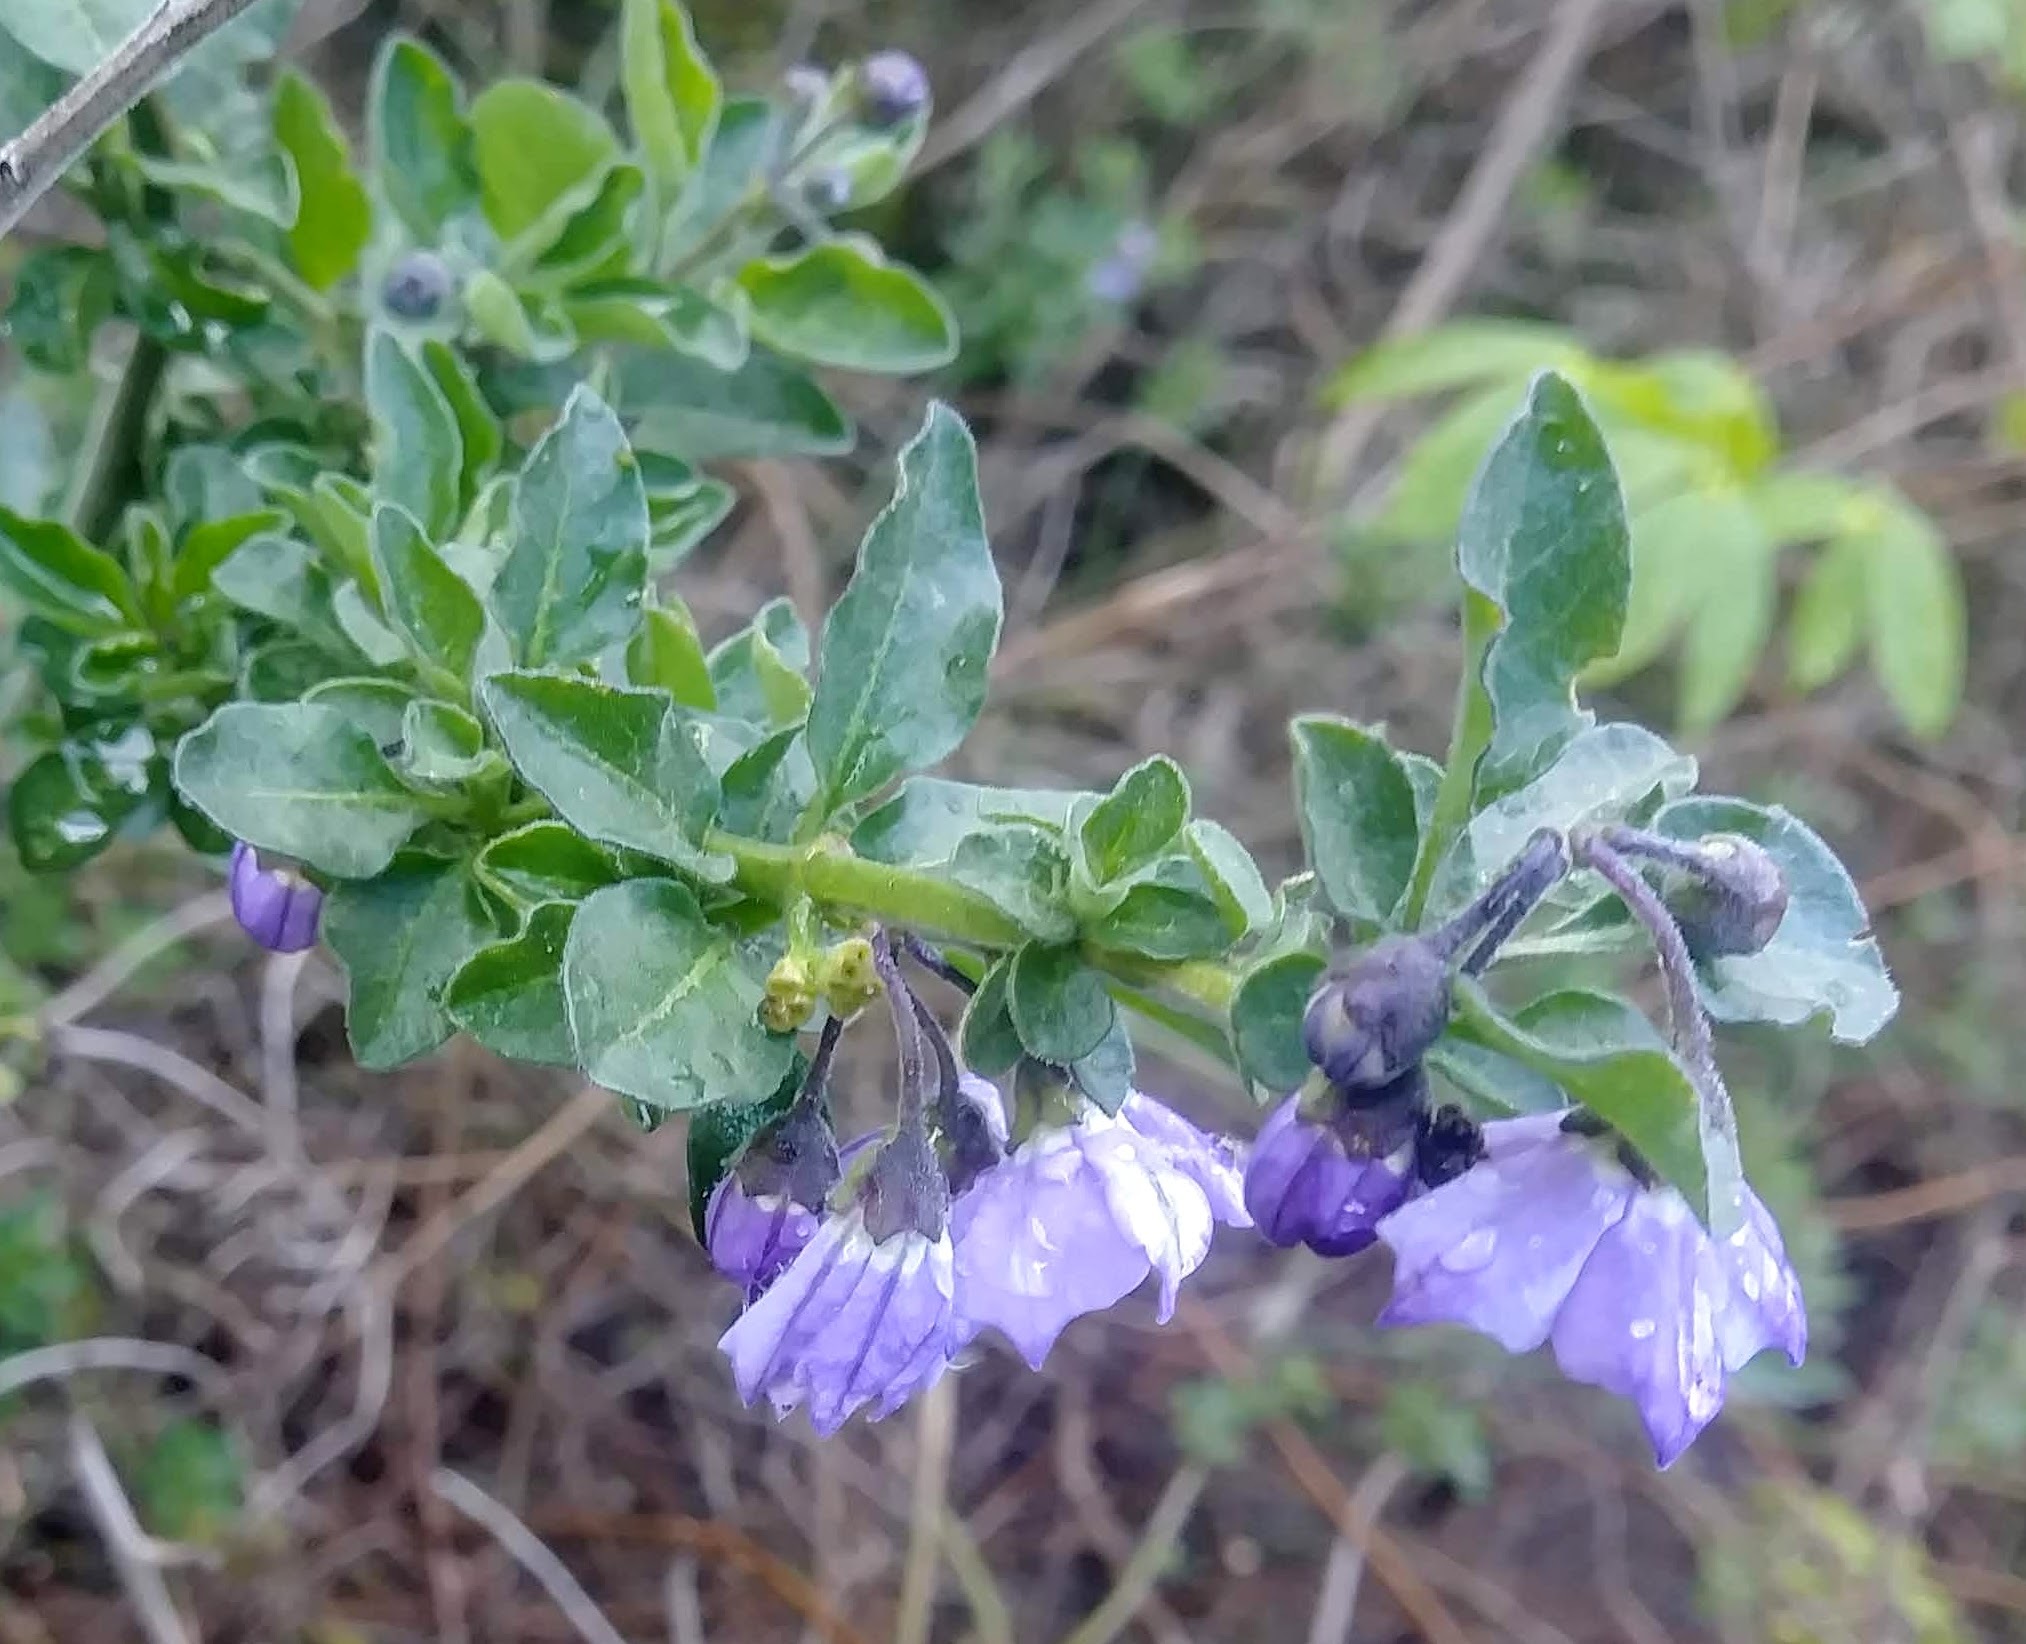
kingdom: Plantae
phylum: Tracheophyta
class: Magnoliopsida
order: Solanales
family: Solanaceae
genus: Solanum
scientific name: Solanum umbelliferum
